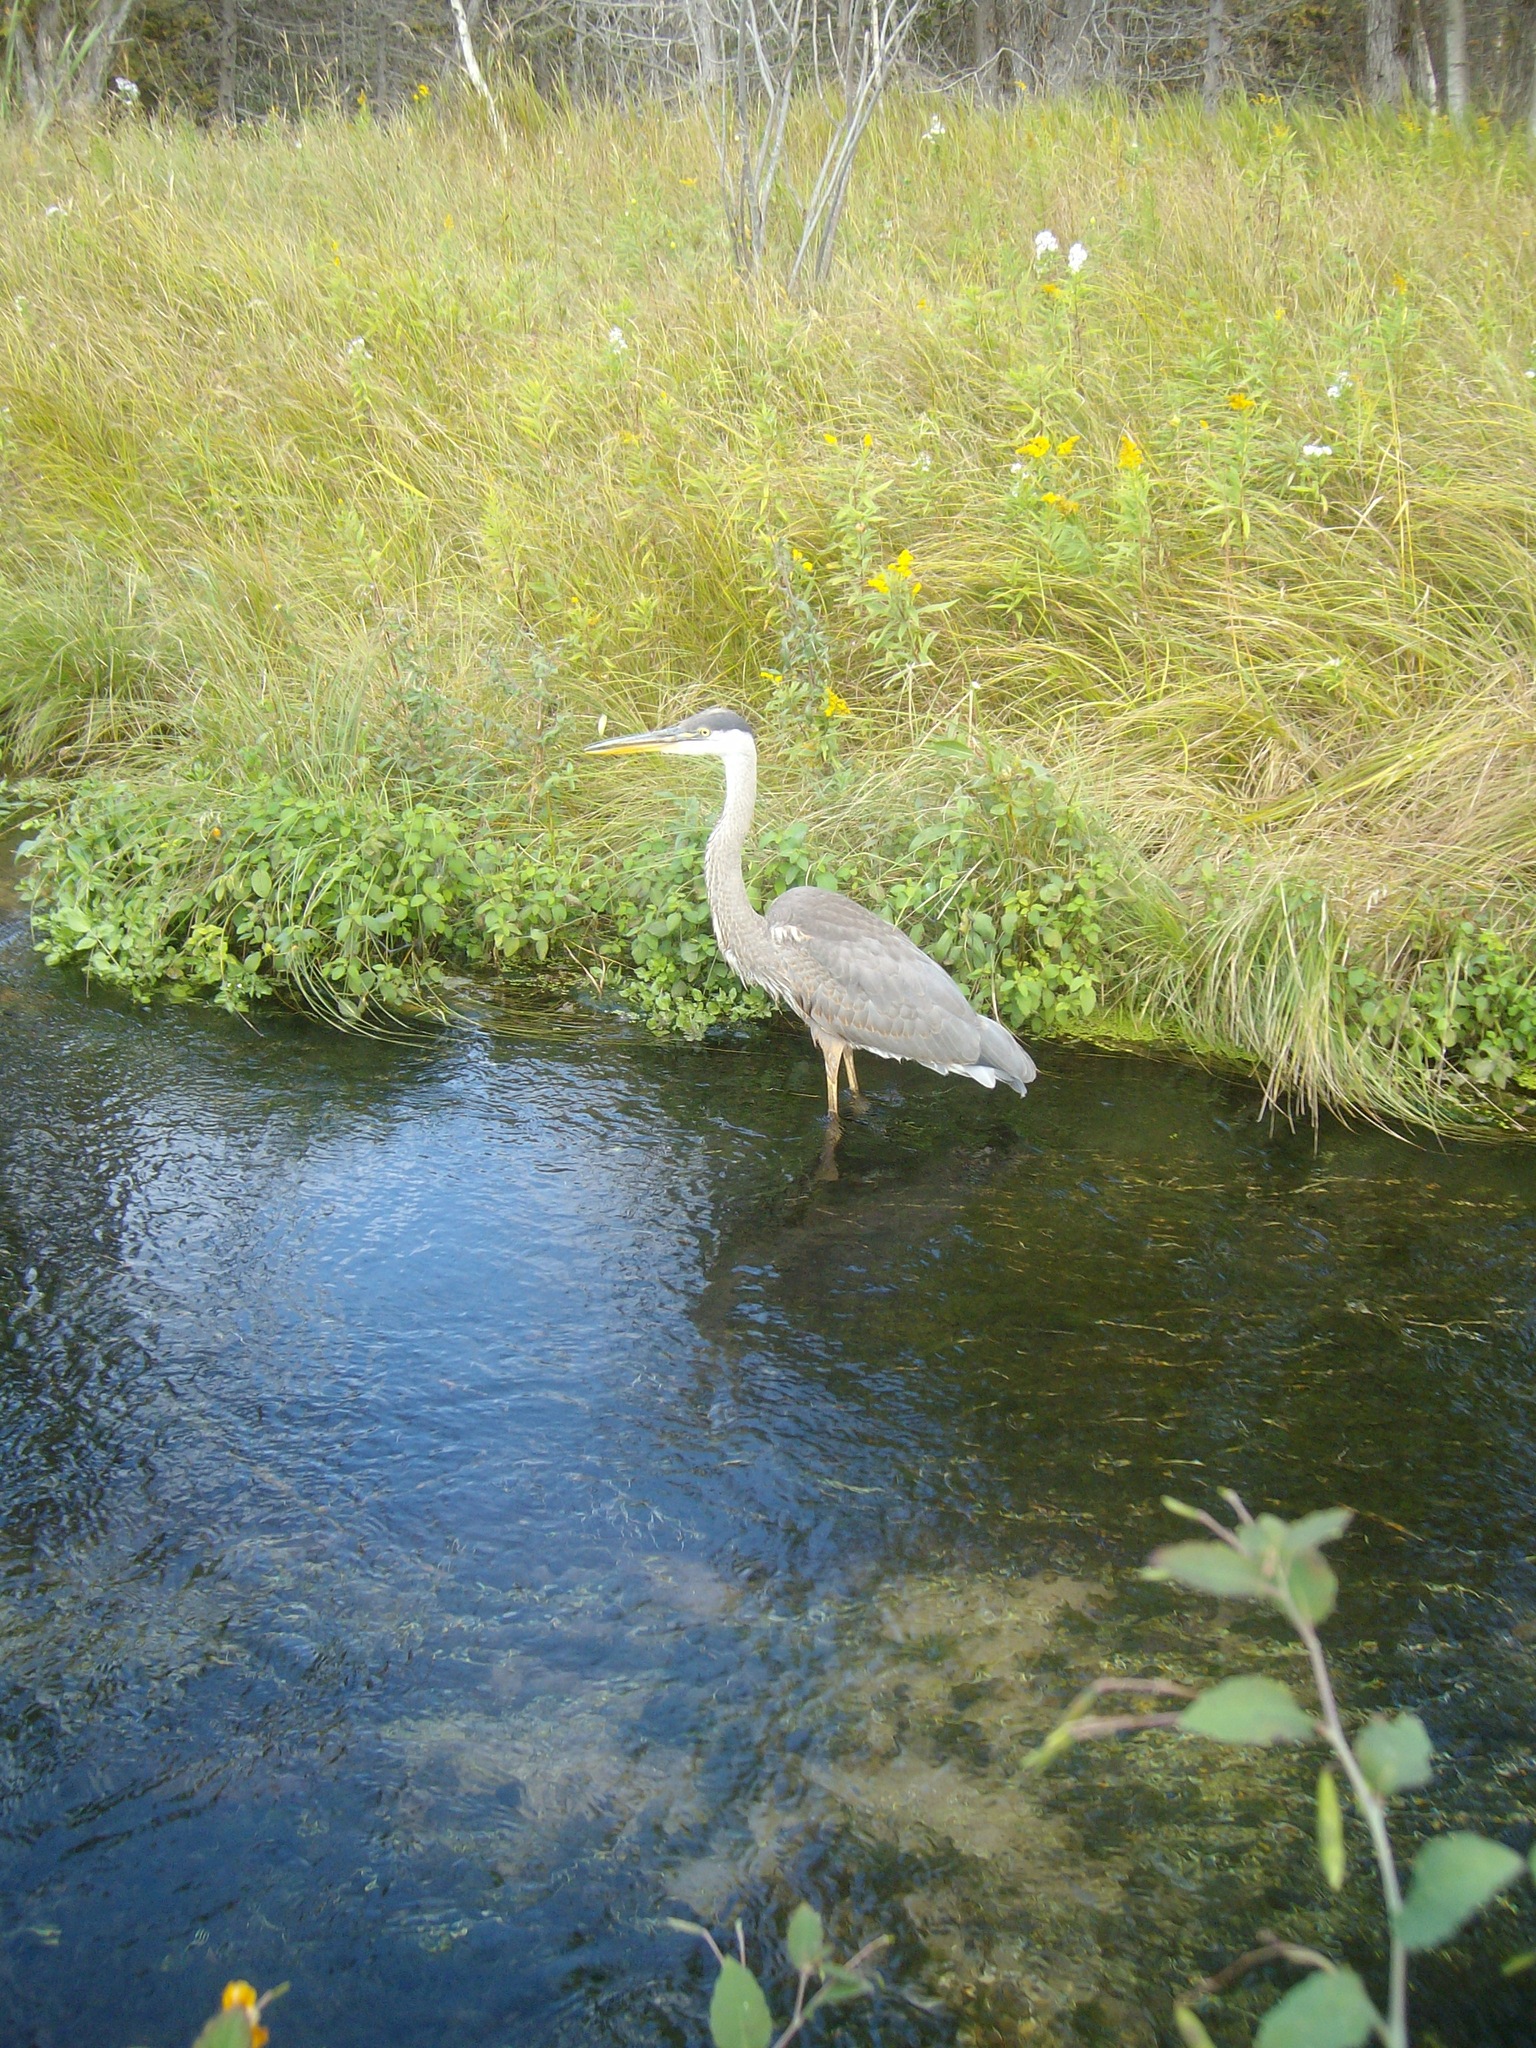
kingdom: Animalia
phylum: Chordata
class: Aves
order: Pelecaniformes
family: Ardeidae
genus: Ardea
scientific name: Ardea herodias
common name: Great blue heron
